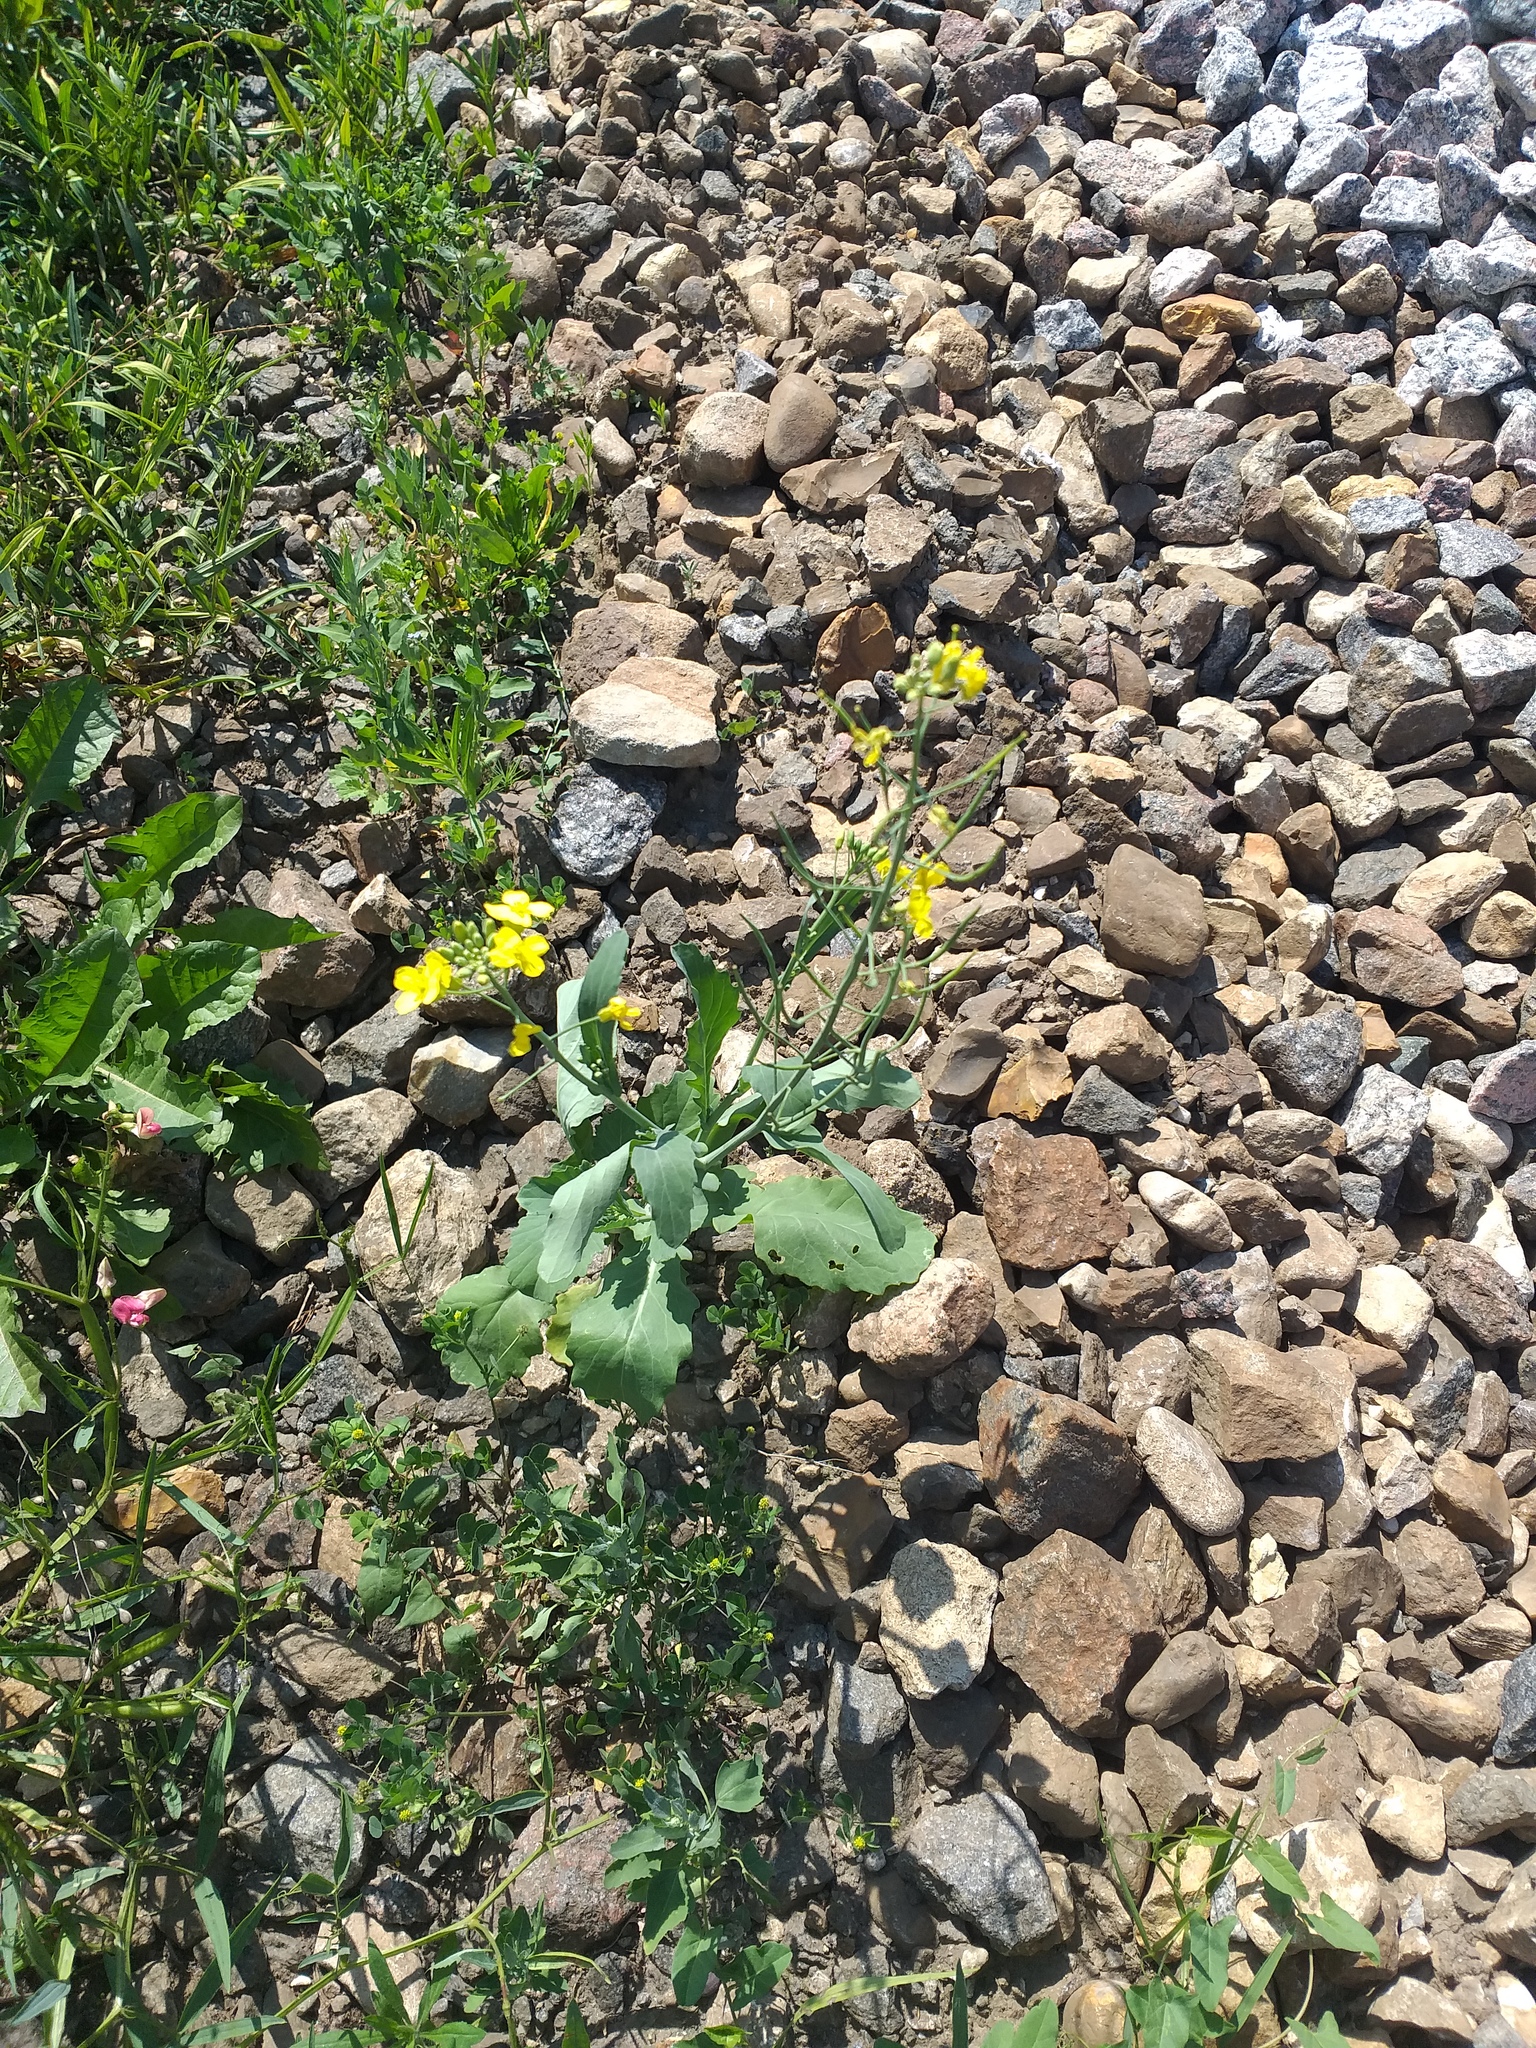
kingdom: Plantae
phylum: Tracheophyta
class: Magnoliopsida
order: Brassicales
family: Brassicaceae
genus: Brassica
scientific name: Brassica napus
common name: Rape
